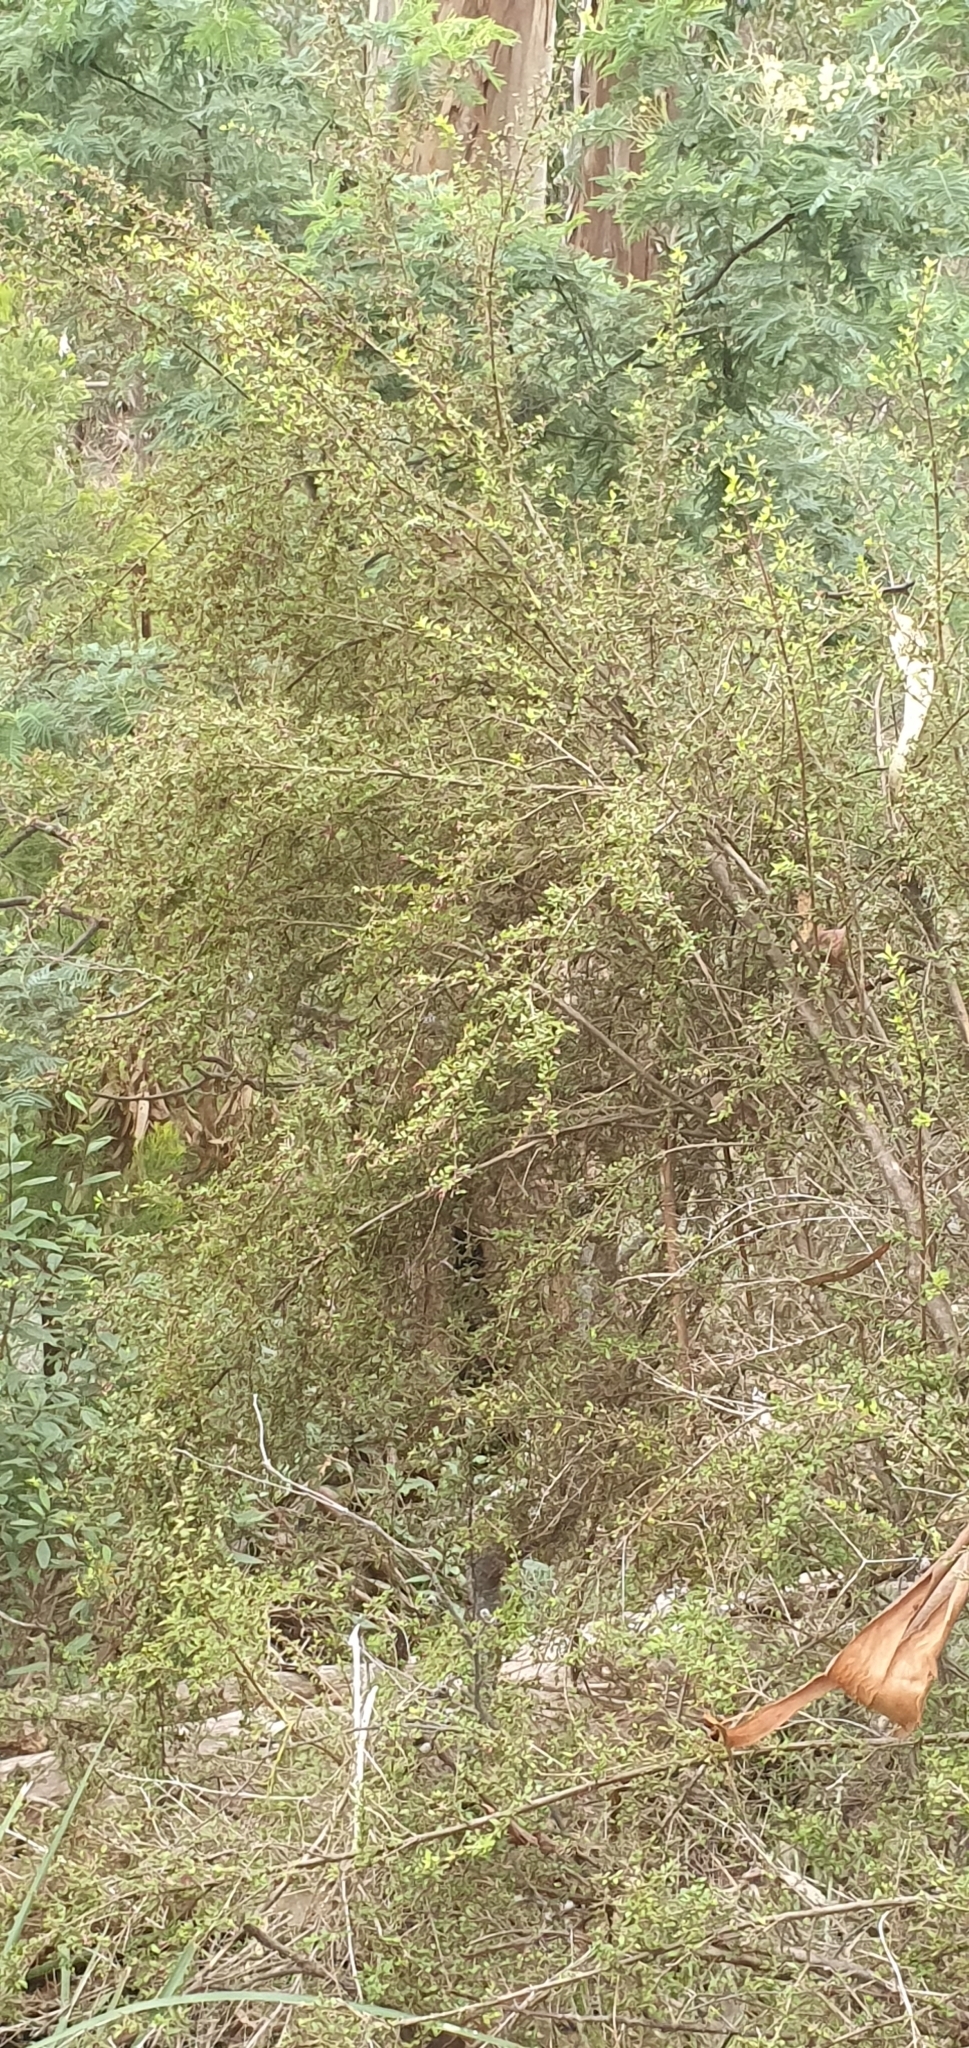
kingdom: Plantae
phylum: Tracheophyta
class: Magnoliopsida
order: Gentianales
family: Rubiaceae
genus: Coprosma
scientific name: Coprosma quadrifida
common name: Prickly currantbush
